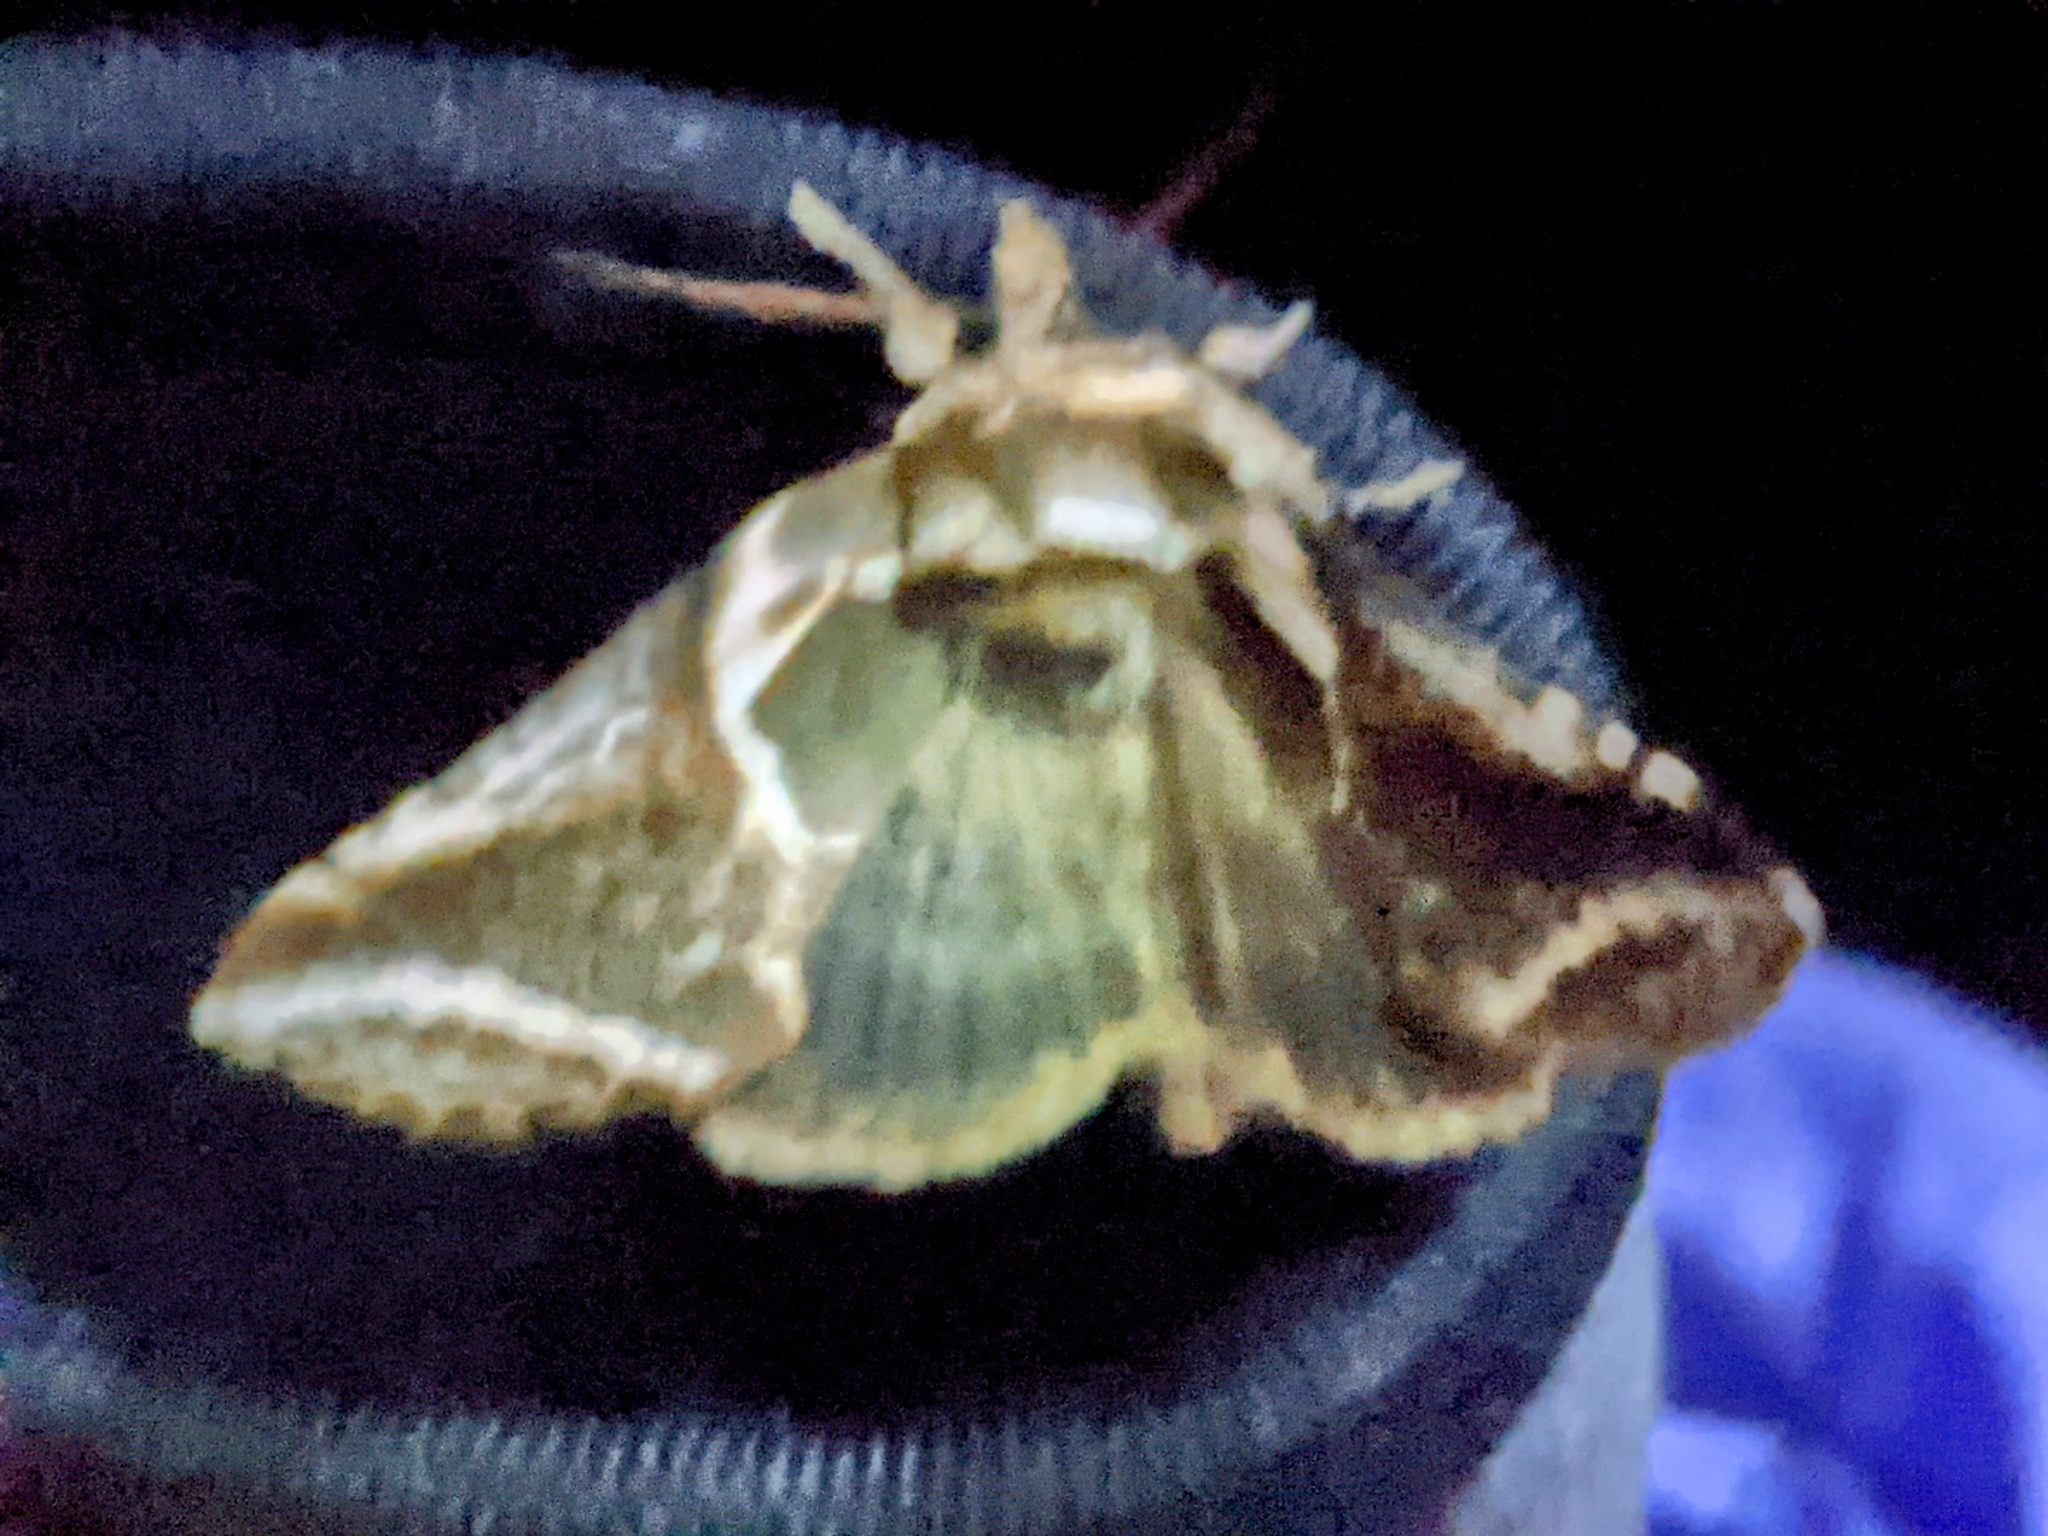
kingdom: Animalia
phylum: Arthropoda
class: Insecta
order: Lepidoptera
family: Drepanidae
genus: Habrosyne
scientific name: Habrosyne scripta
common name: Lettered habrosyne moth
